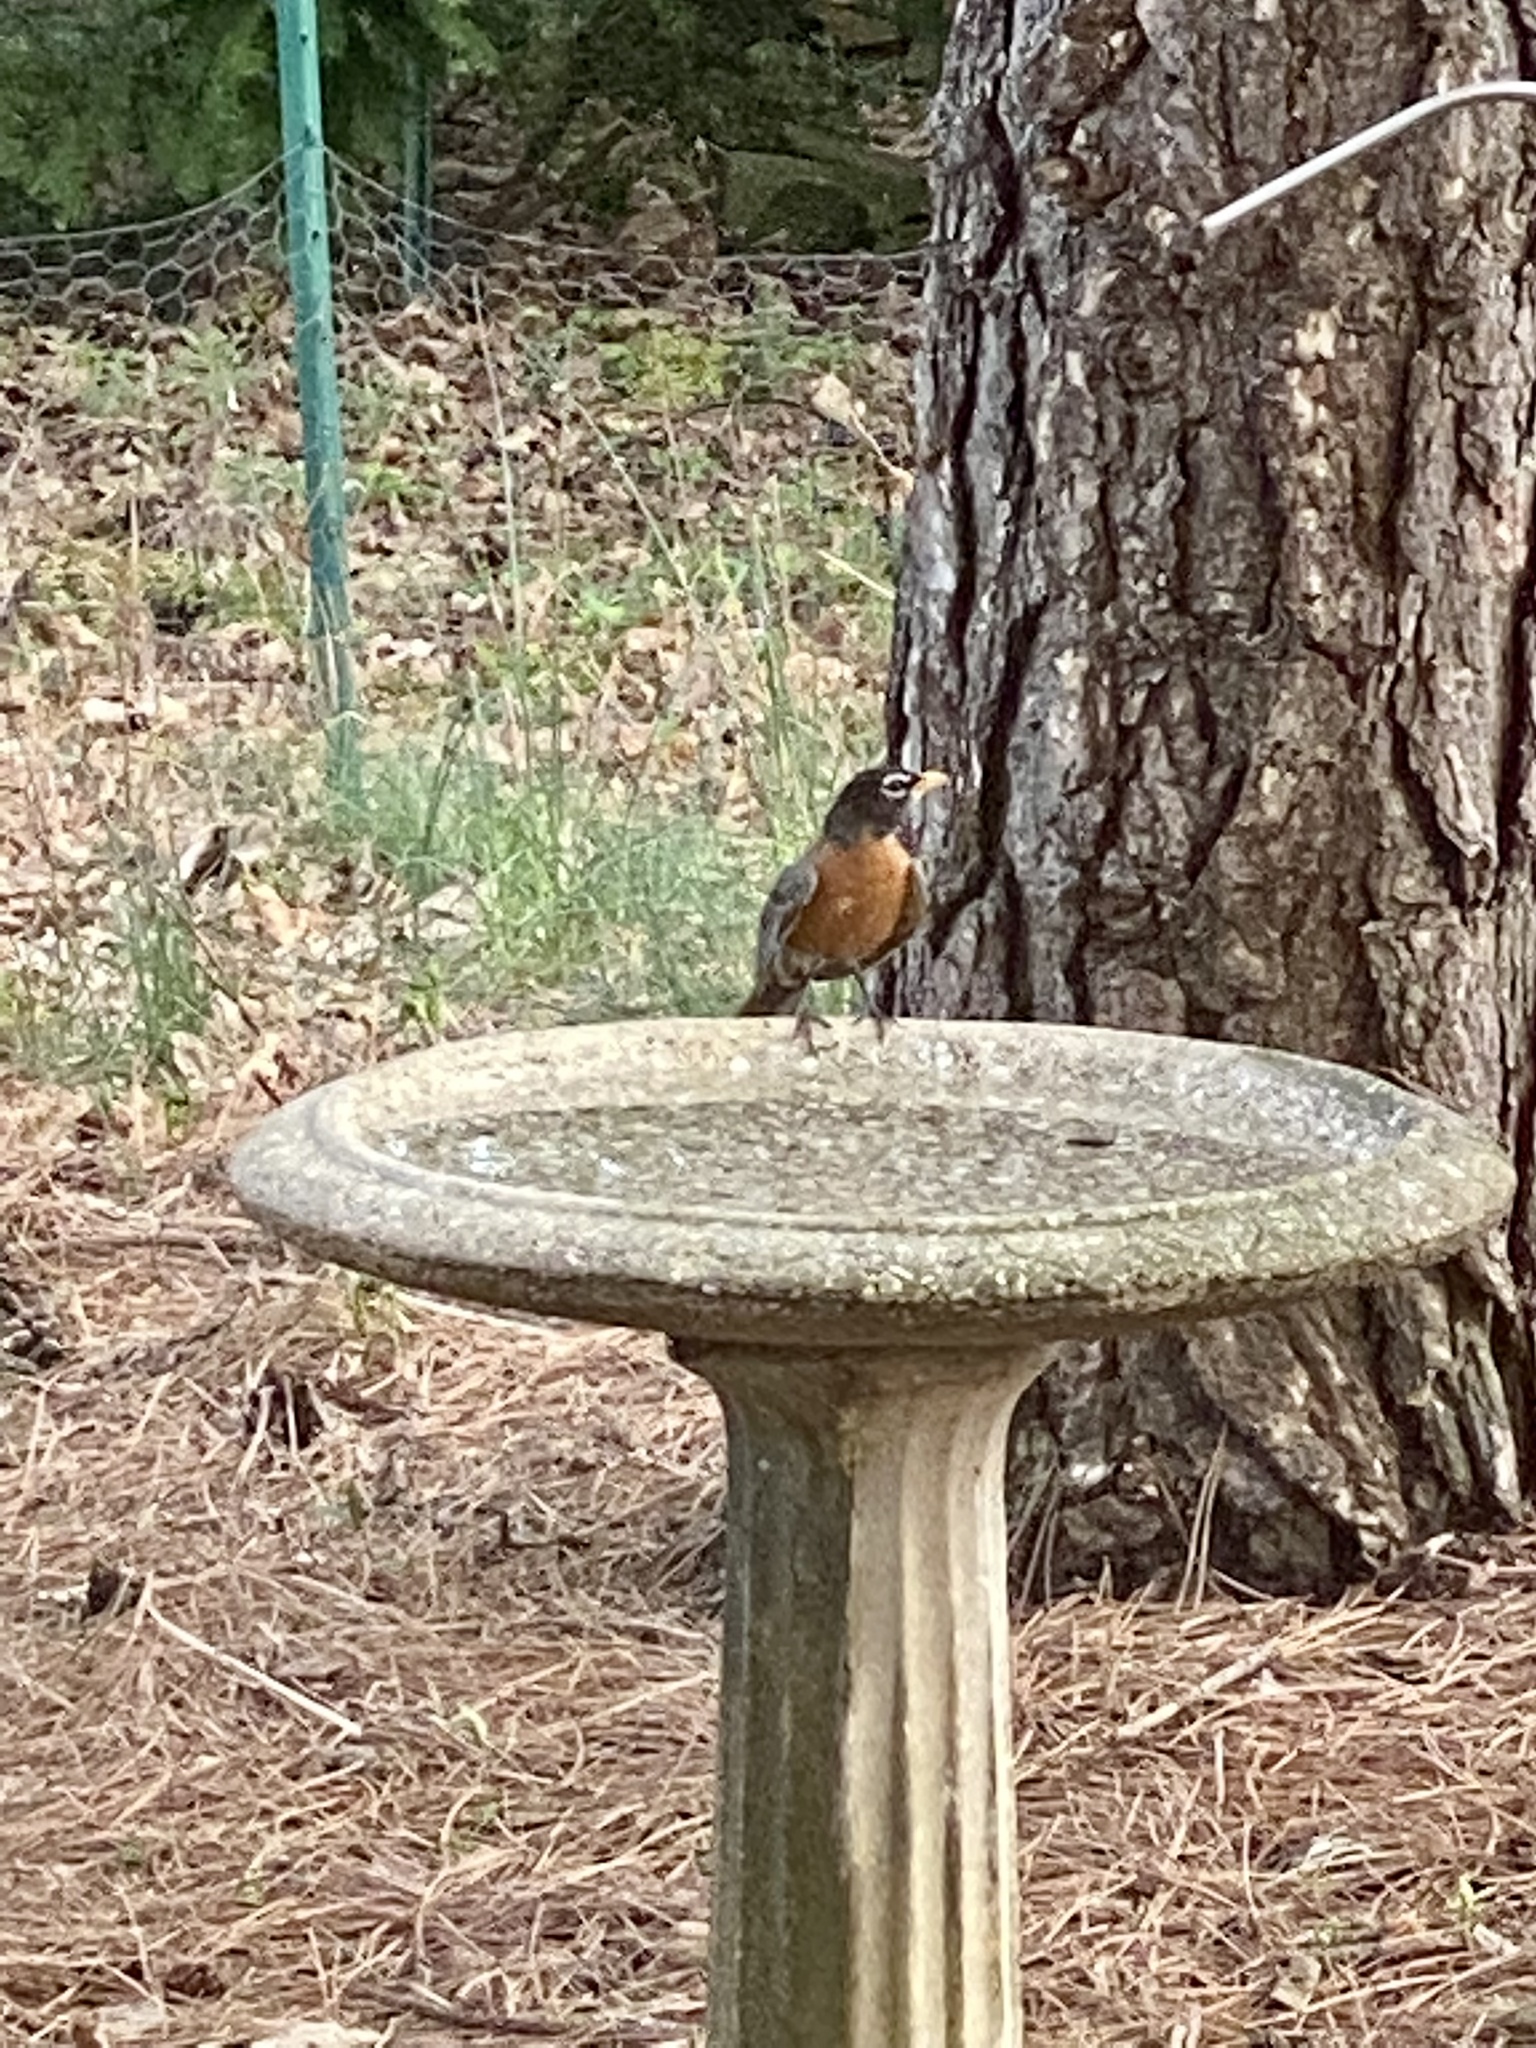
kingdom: Animalia
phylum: Chordata
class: Aves
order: Passeriformes
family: Turdidae
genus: Turdus
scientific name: Turdus migratorius
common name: American robin
